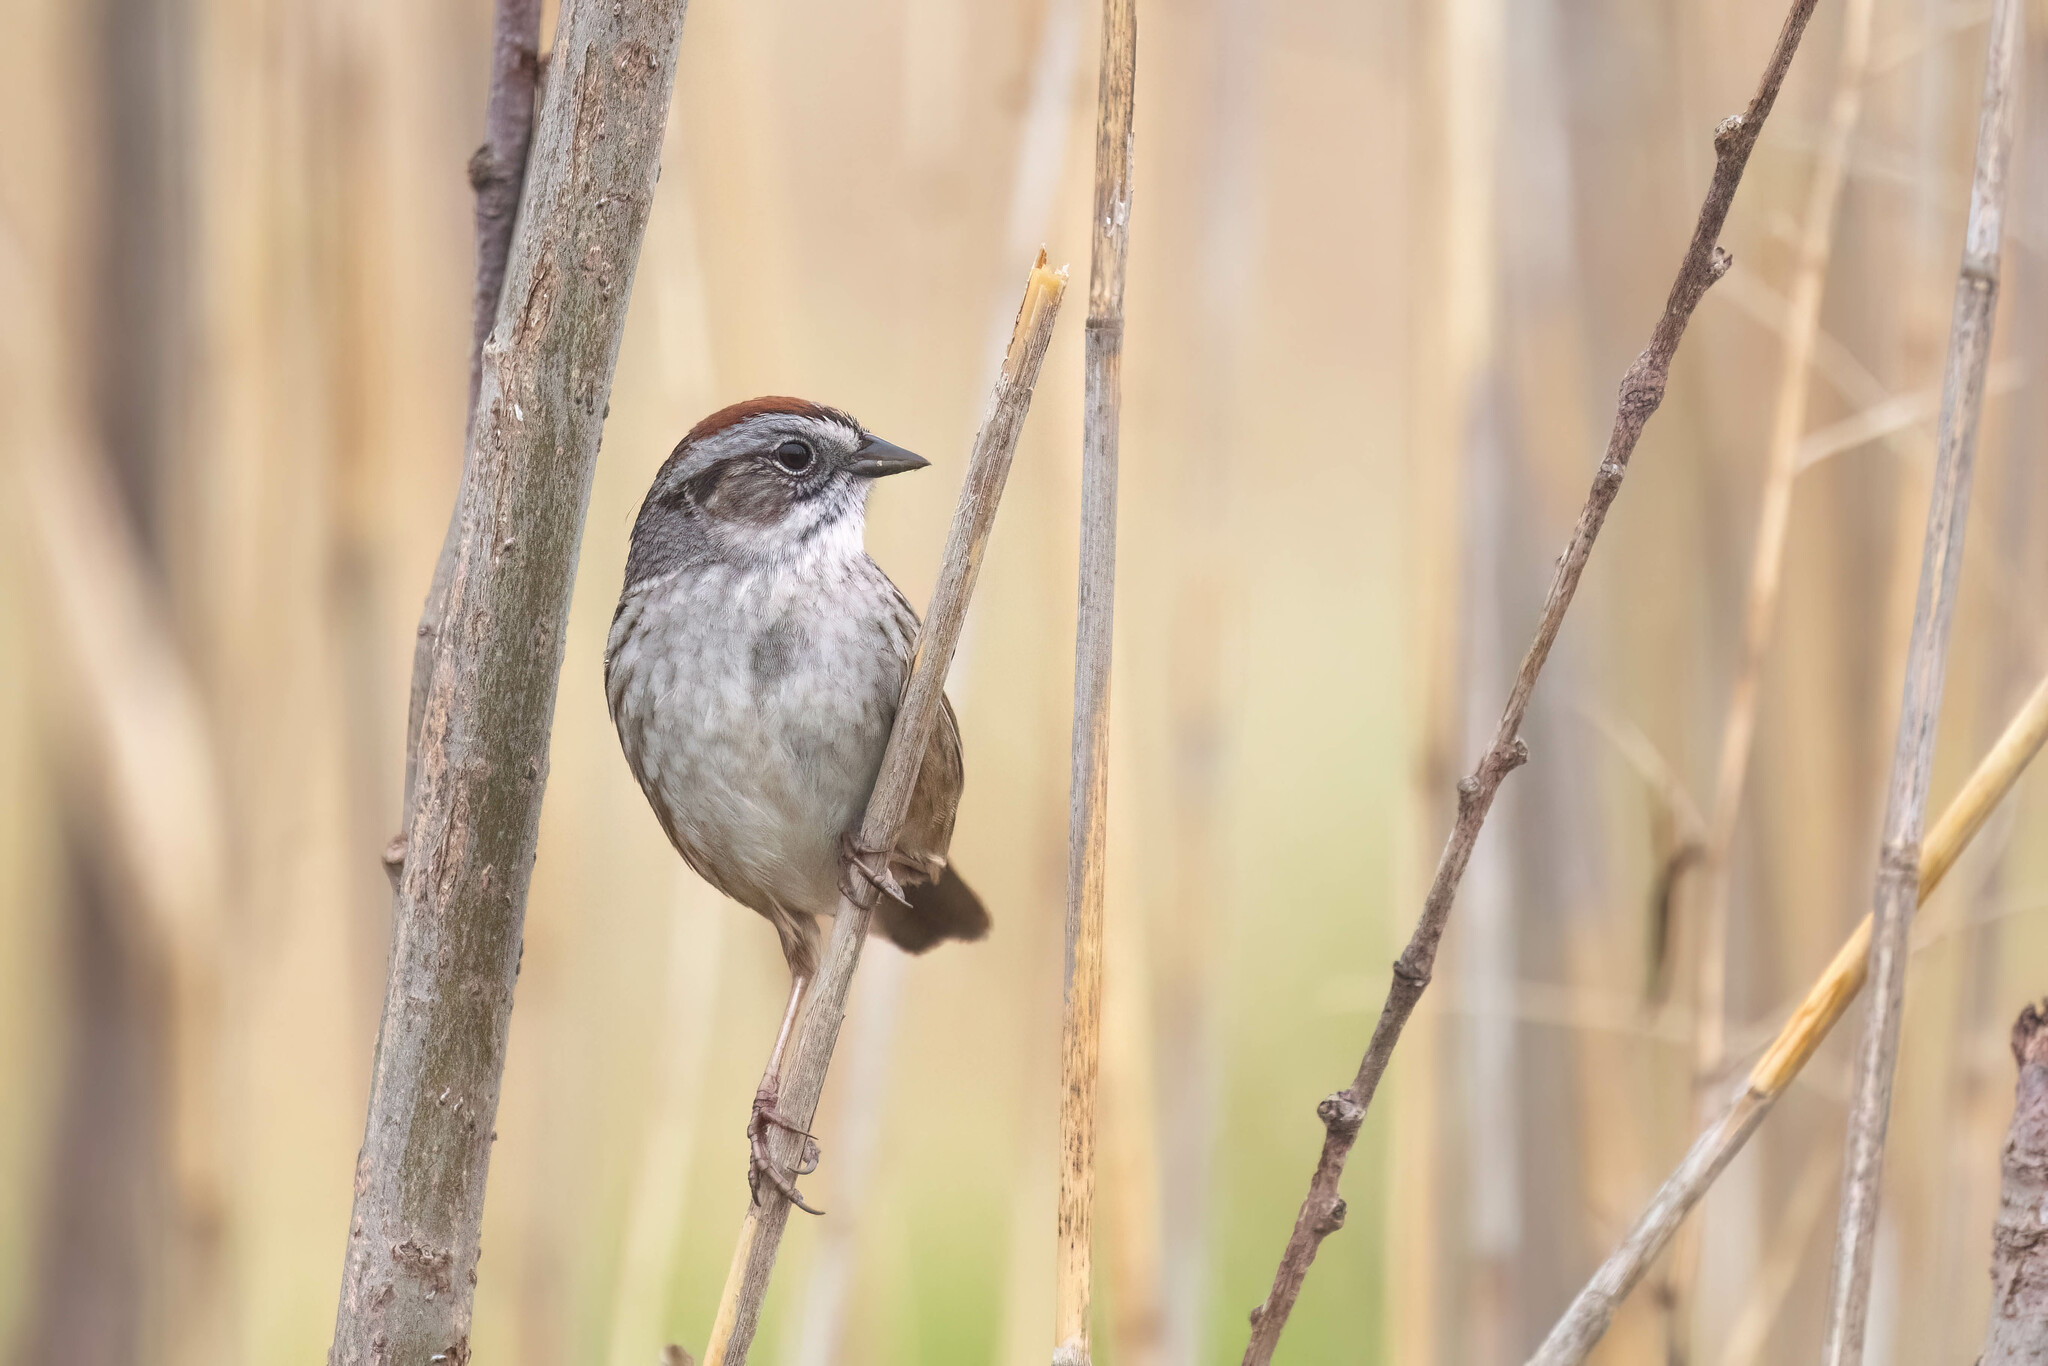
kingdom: Animalia
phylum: Chordata
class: Aves
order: Passeriformes
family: Passerellidae
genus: Melospiza
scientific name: Melospiza georgiana
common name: Swamp sparrow
